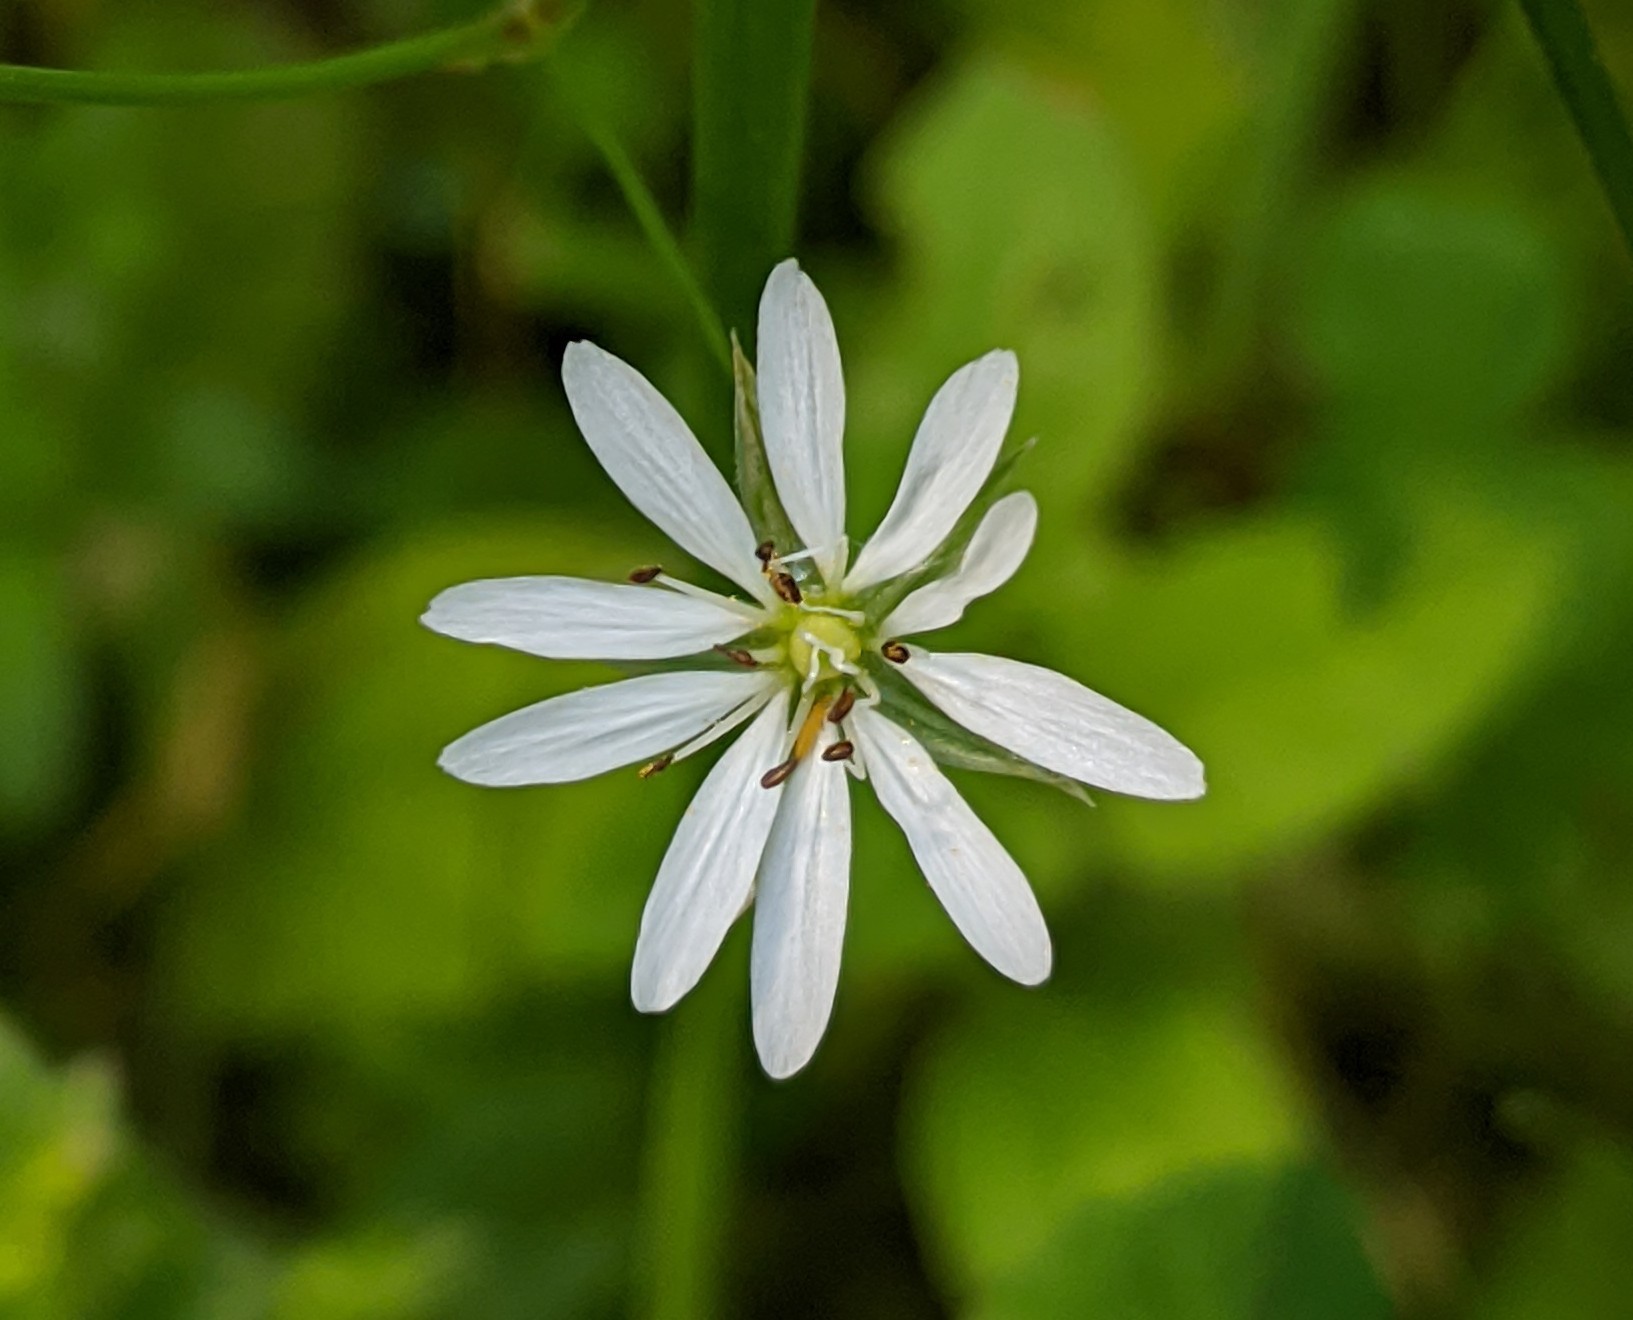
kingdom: Plantae
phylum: Tracheophyta
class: Magnoliopsida
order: Caryophyllales
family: Caryophyllaceae
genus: Stellaria
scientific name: Stellaria graminea
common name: Grass-like starwort
